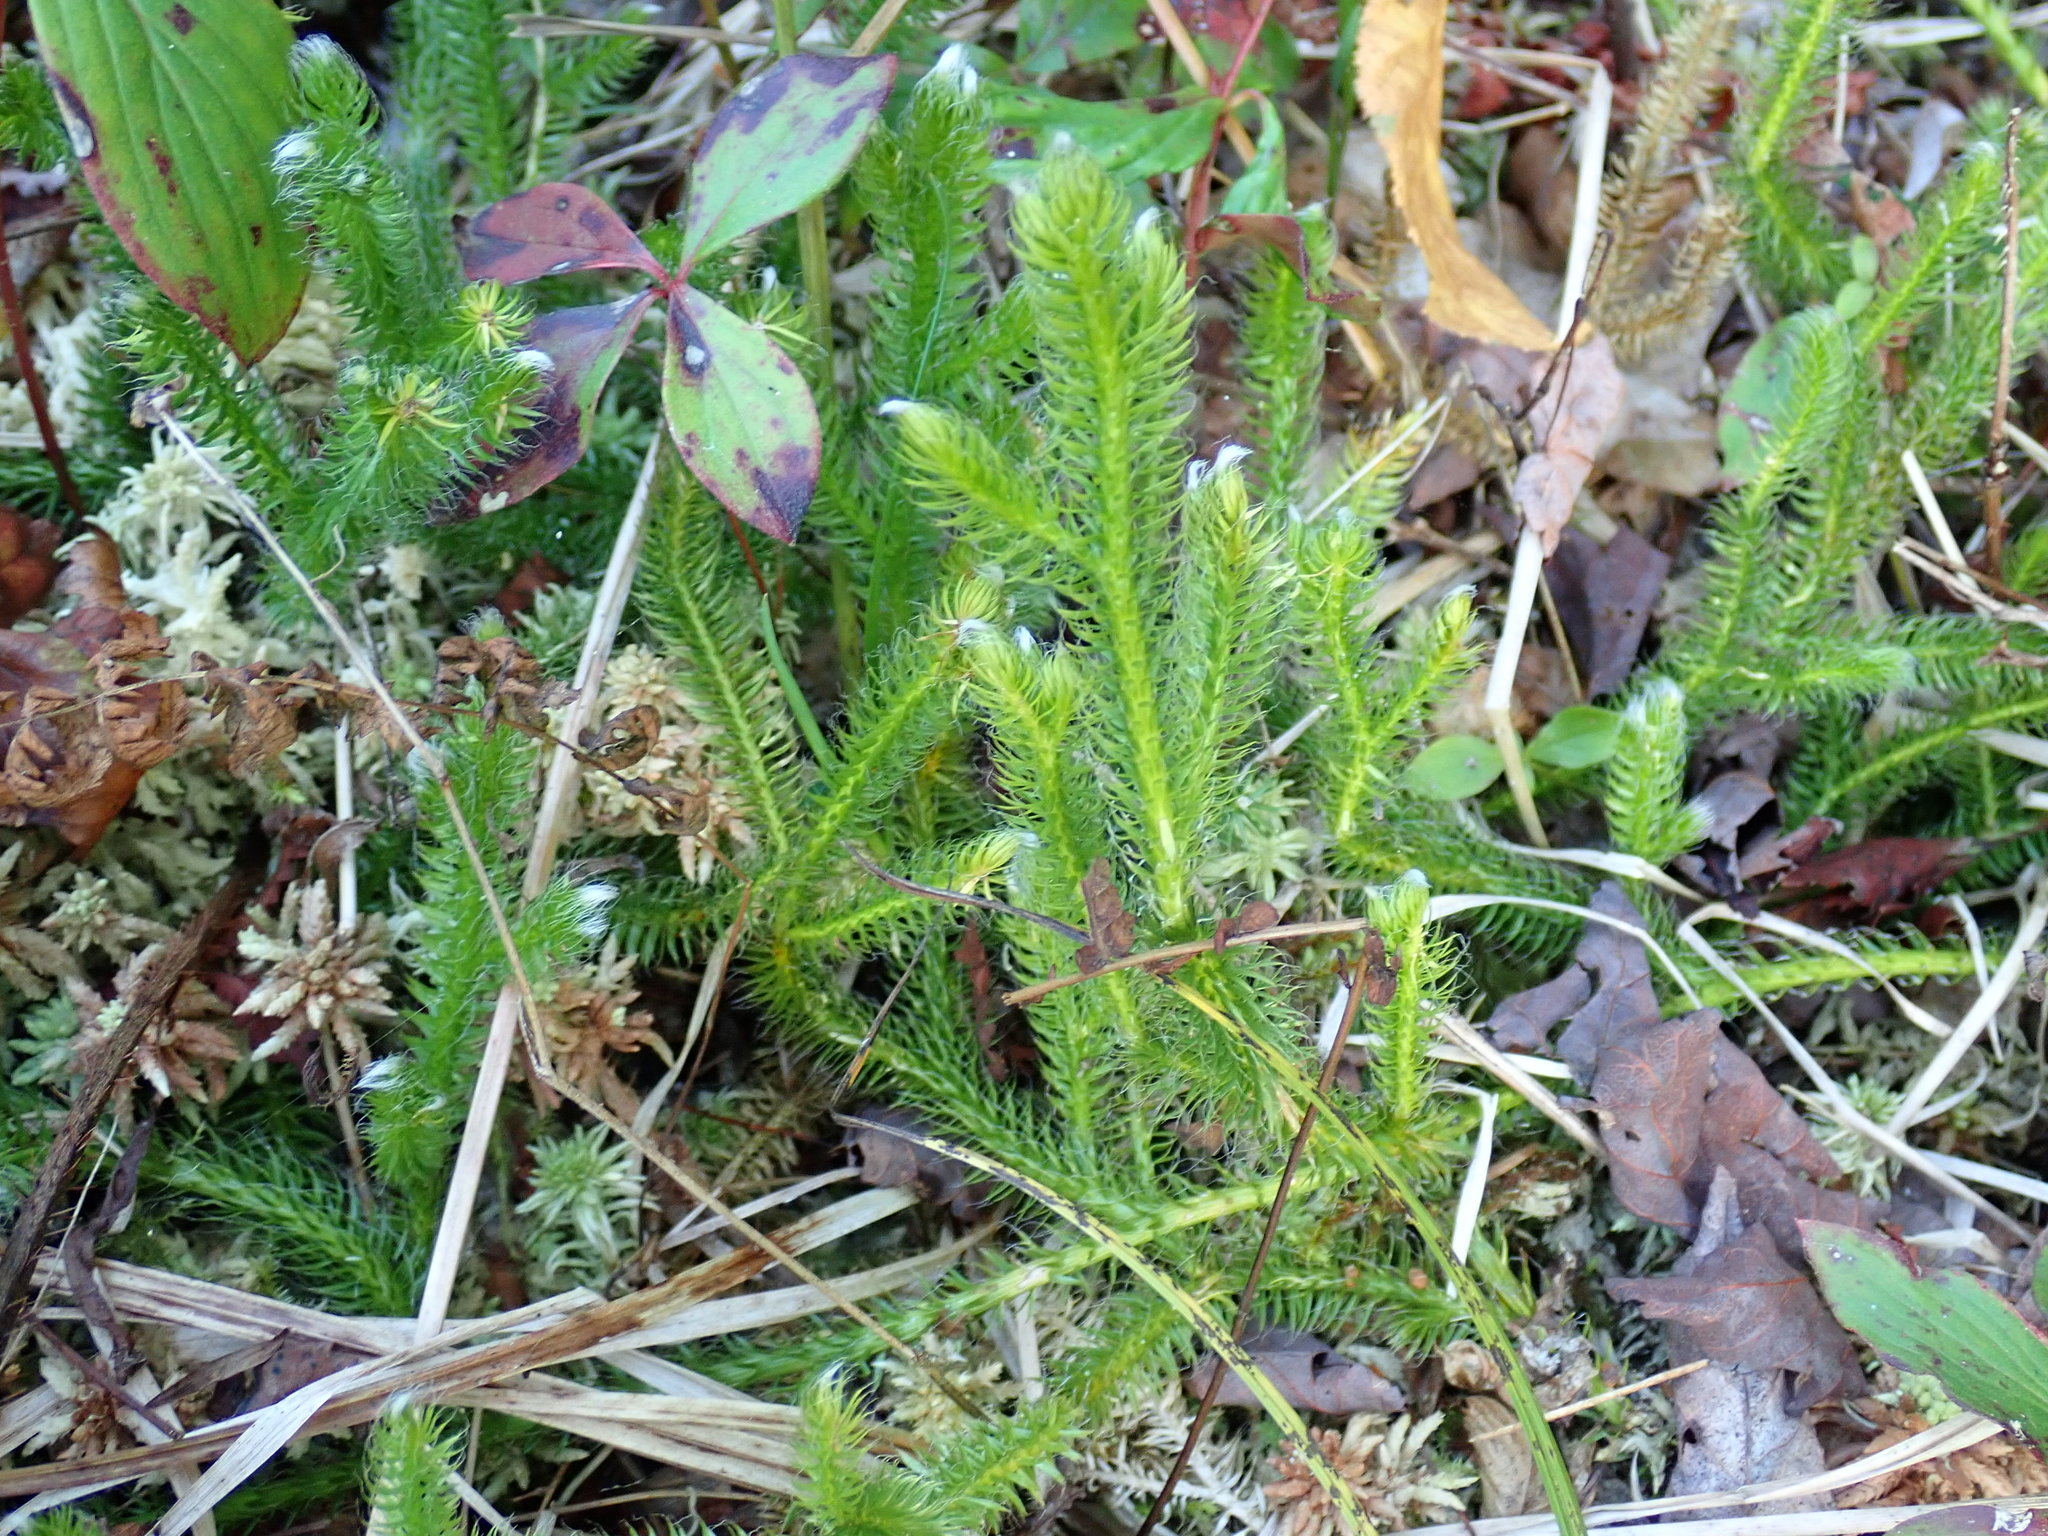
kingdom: Plantae
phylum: Tracheophyta
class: Lycopodiopsida
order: Lycopodiales
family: Lycopodiaceae
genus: Lycopodium
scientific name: Lycopodium clavatum
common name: Stag's-horn clubmoss
